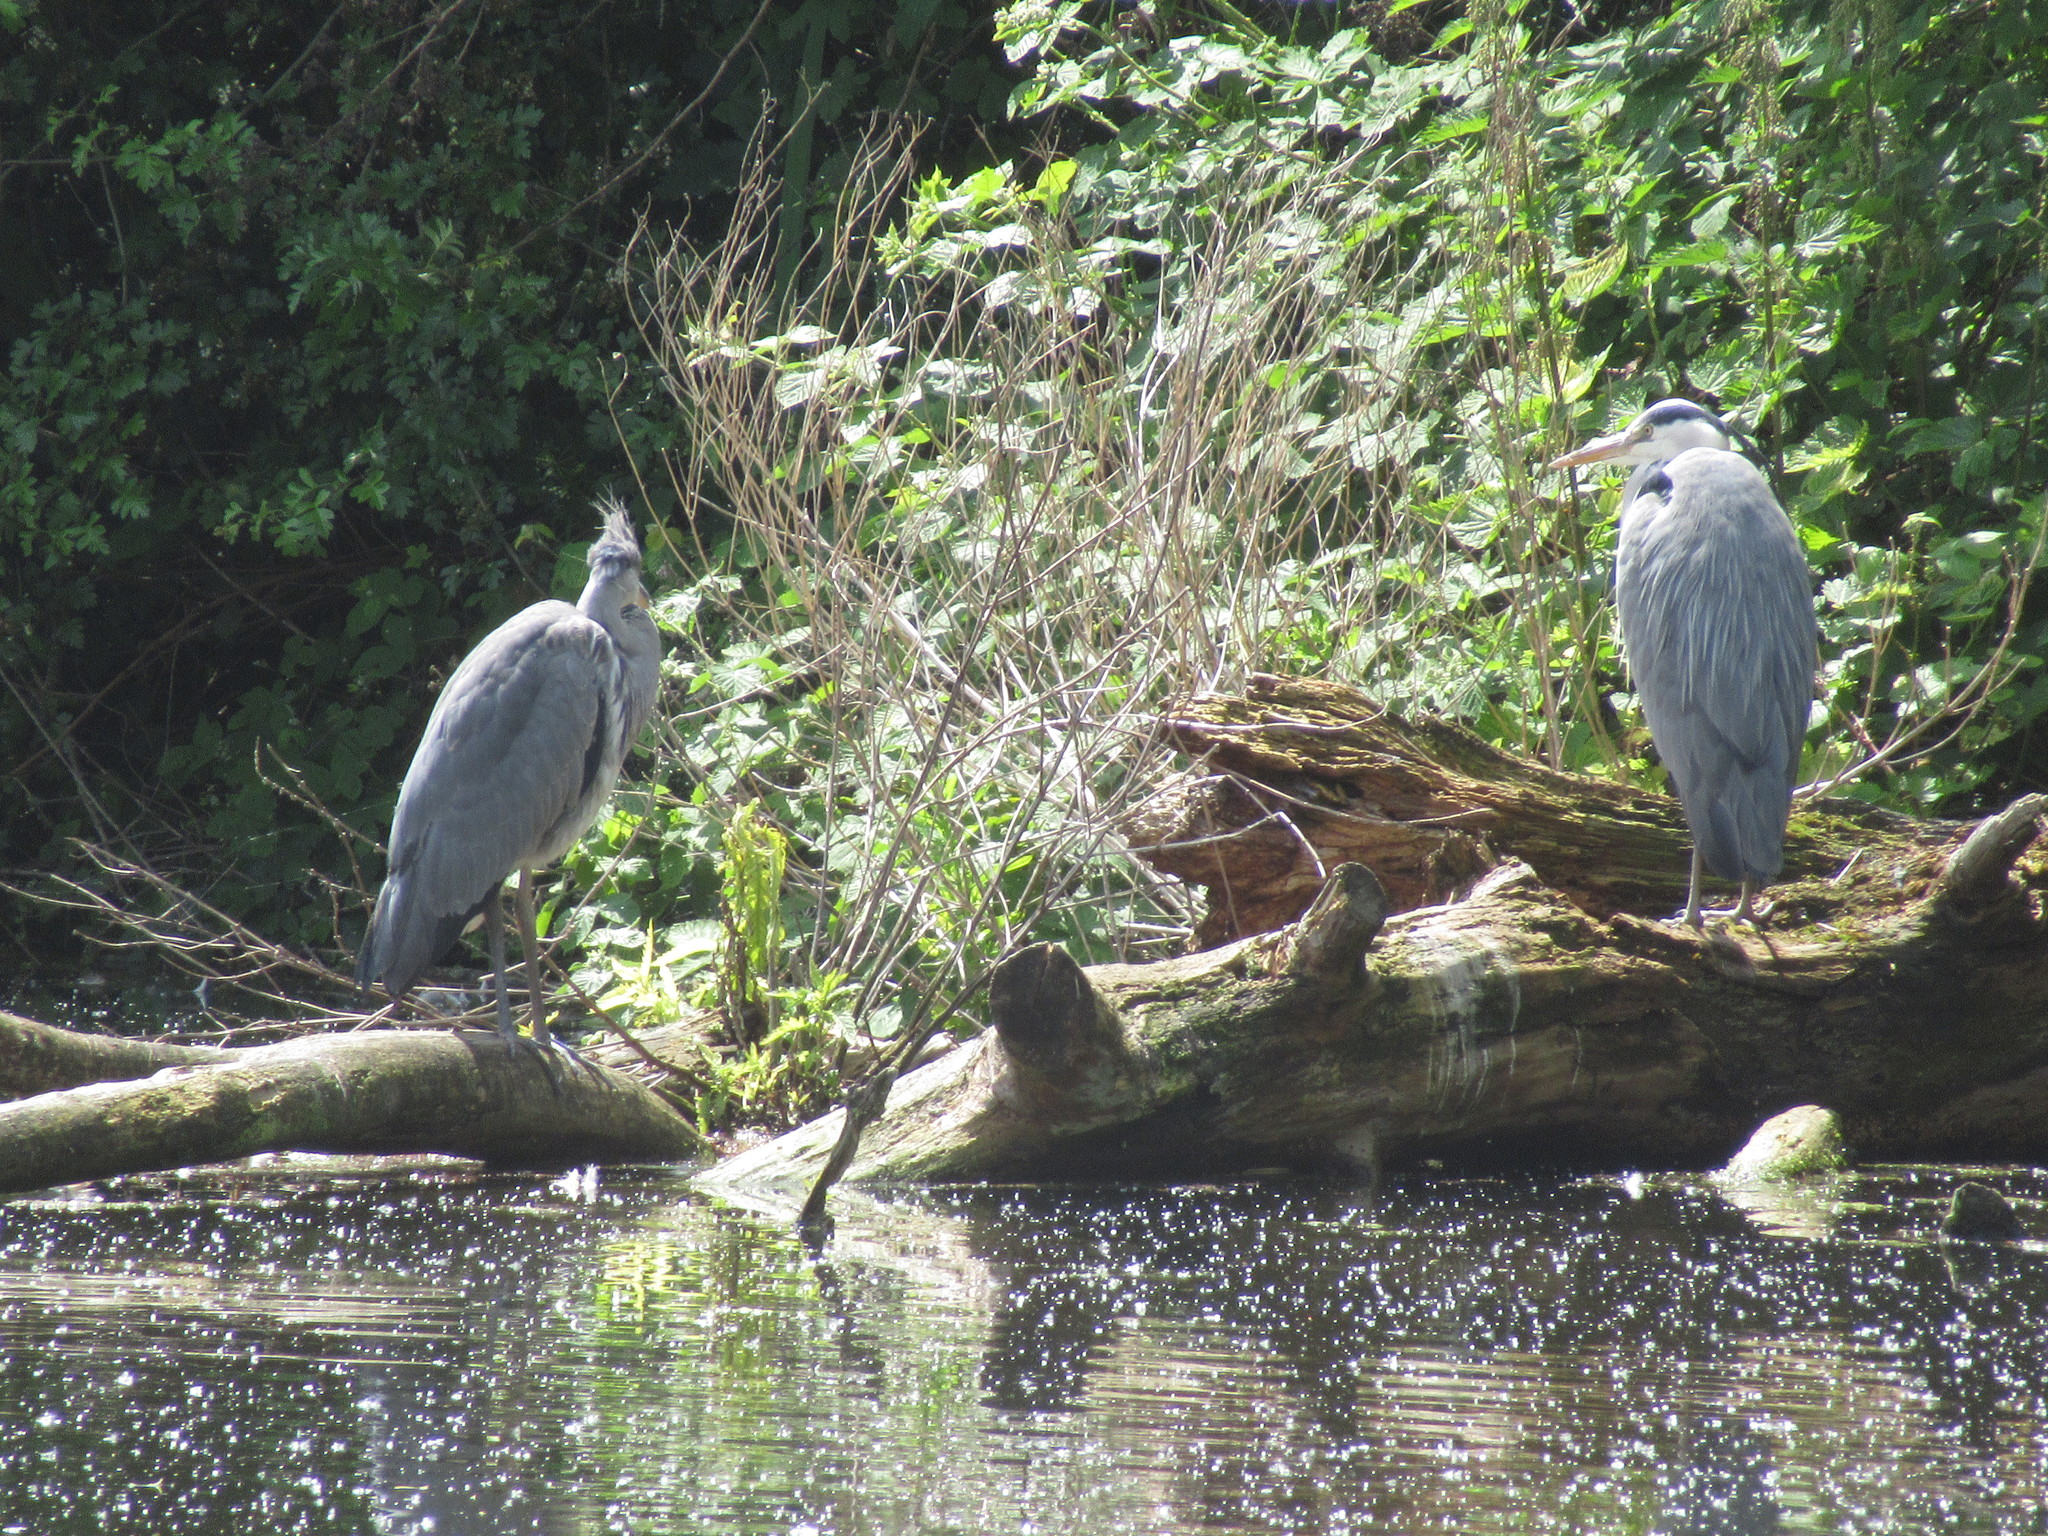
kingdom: Animalia
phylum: Chordata
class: Aves
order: Pelecaniformes
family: Ardeidae
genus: Ardea
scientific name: Ardea cinerea
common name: Grey heron
